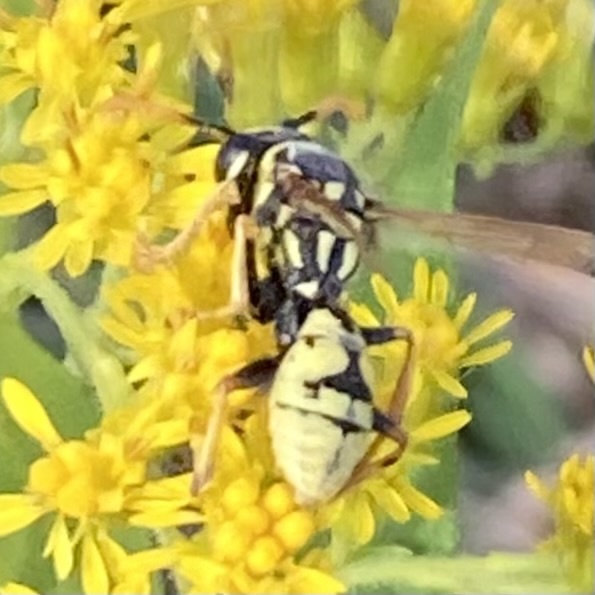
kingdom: Animalia
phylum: Arthropoda
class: Insecta
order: Hymenoptera
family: Eumenidae
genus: Polistes
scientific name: Polistes dominula
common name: Paper wasp
